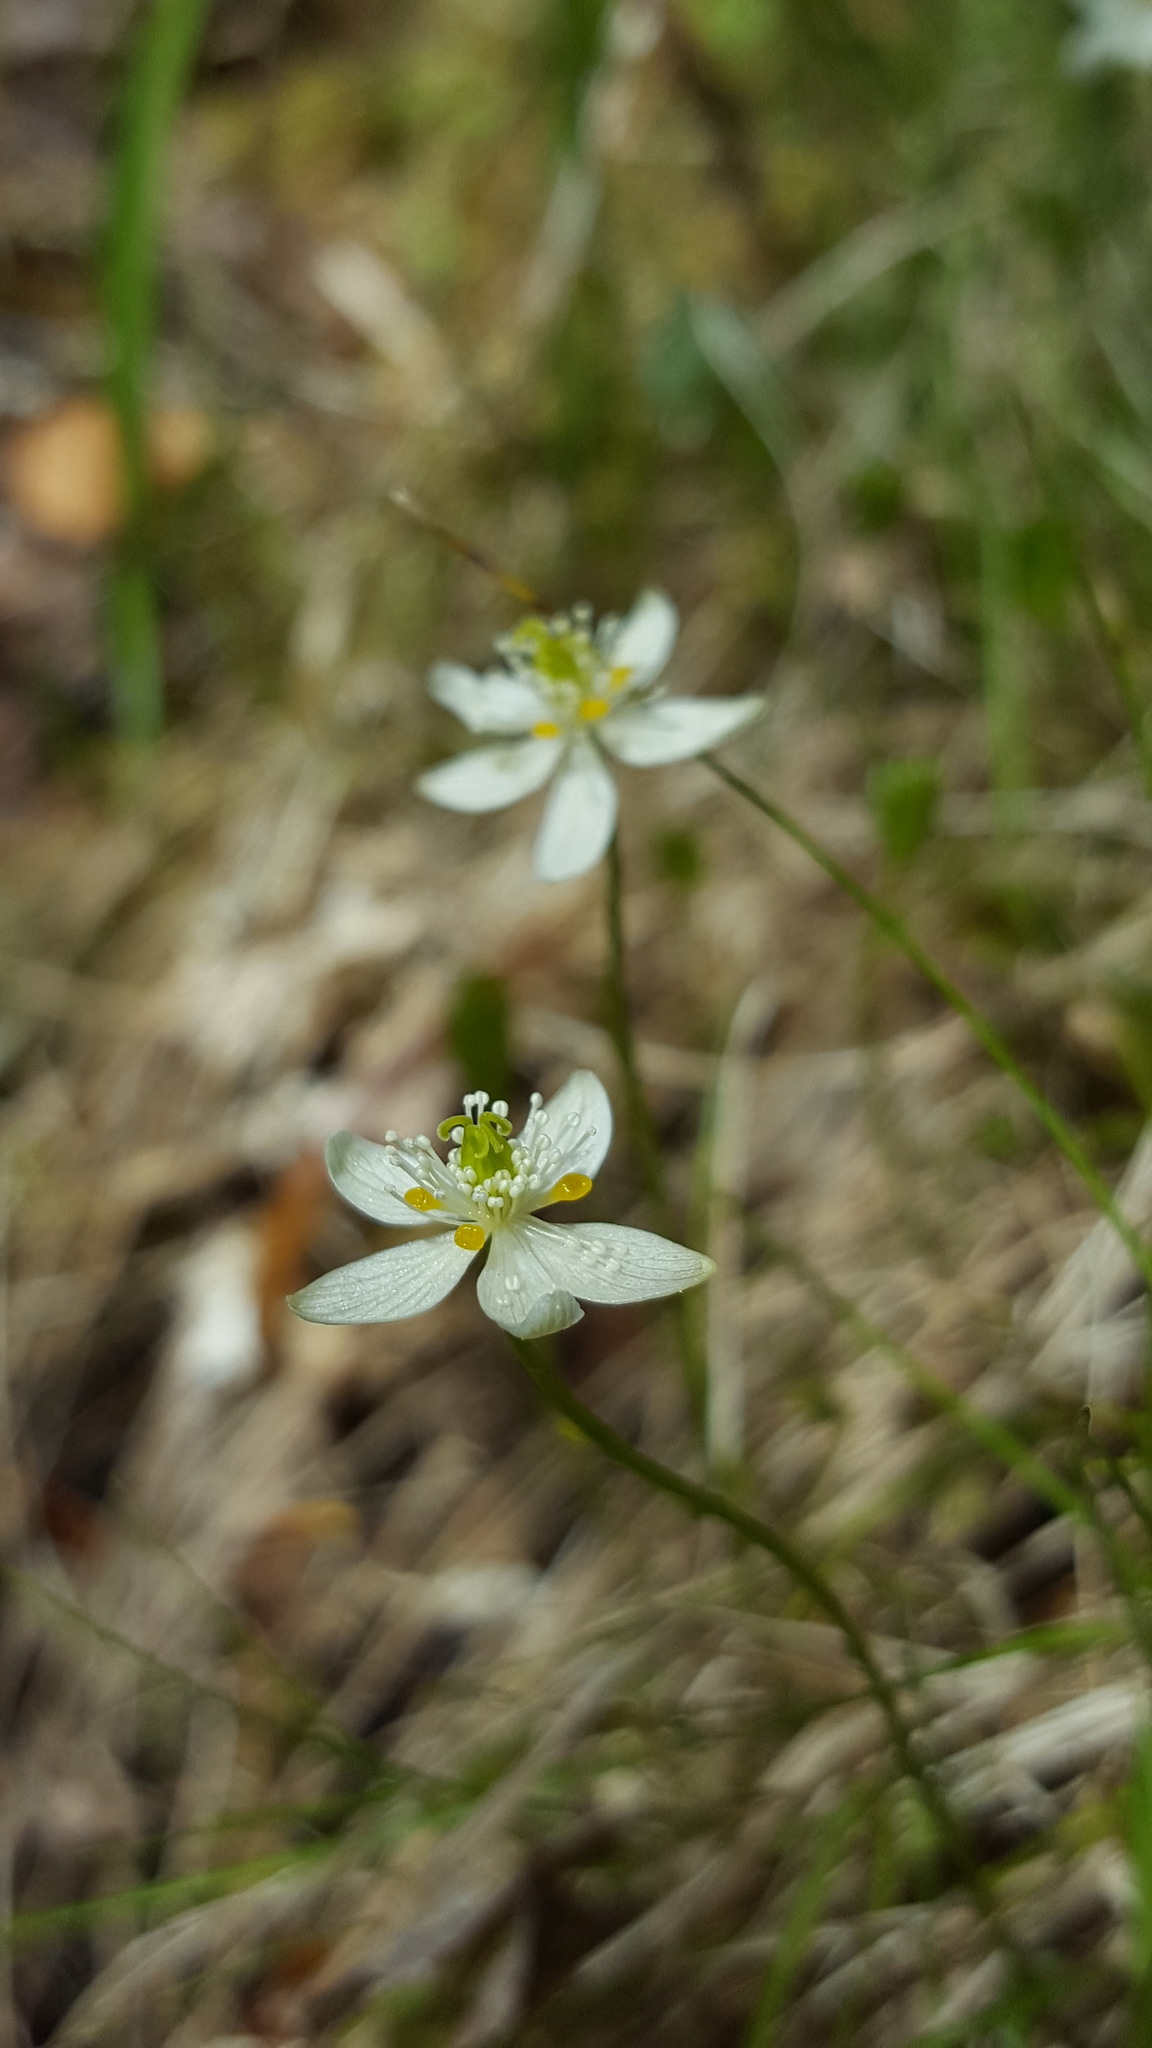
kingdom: Plantae
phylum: Tracheophyta
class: Magnoliopsida
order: Ranunculales
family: Ranunculaceae
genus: Coptis
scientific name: Coptis trifolia
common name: Canker-root
